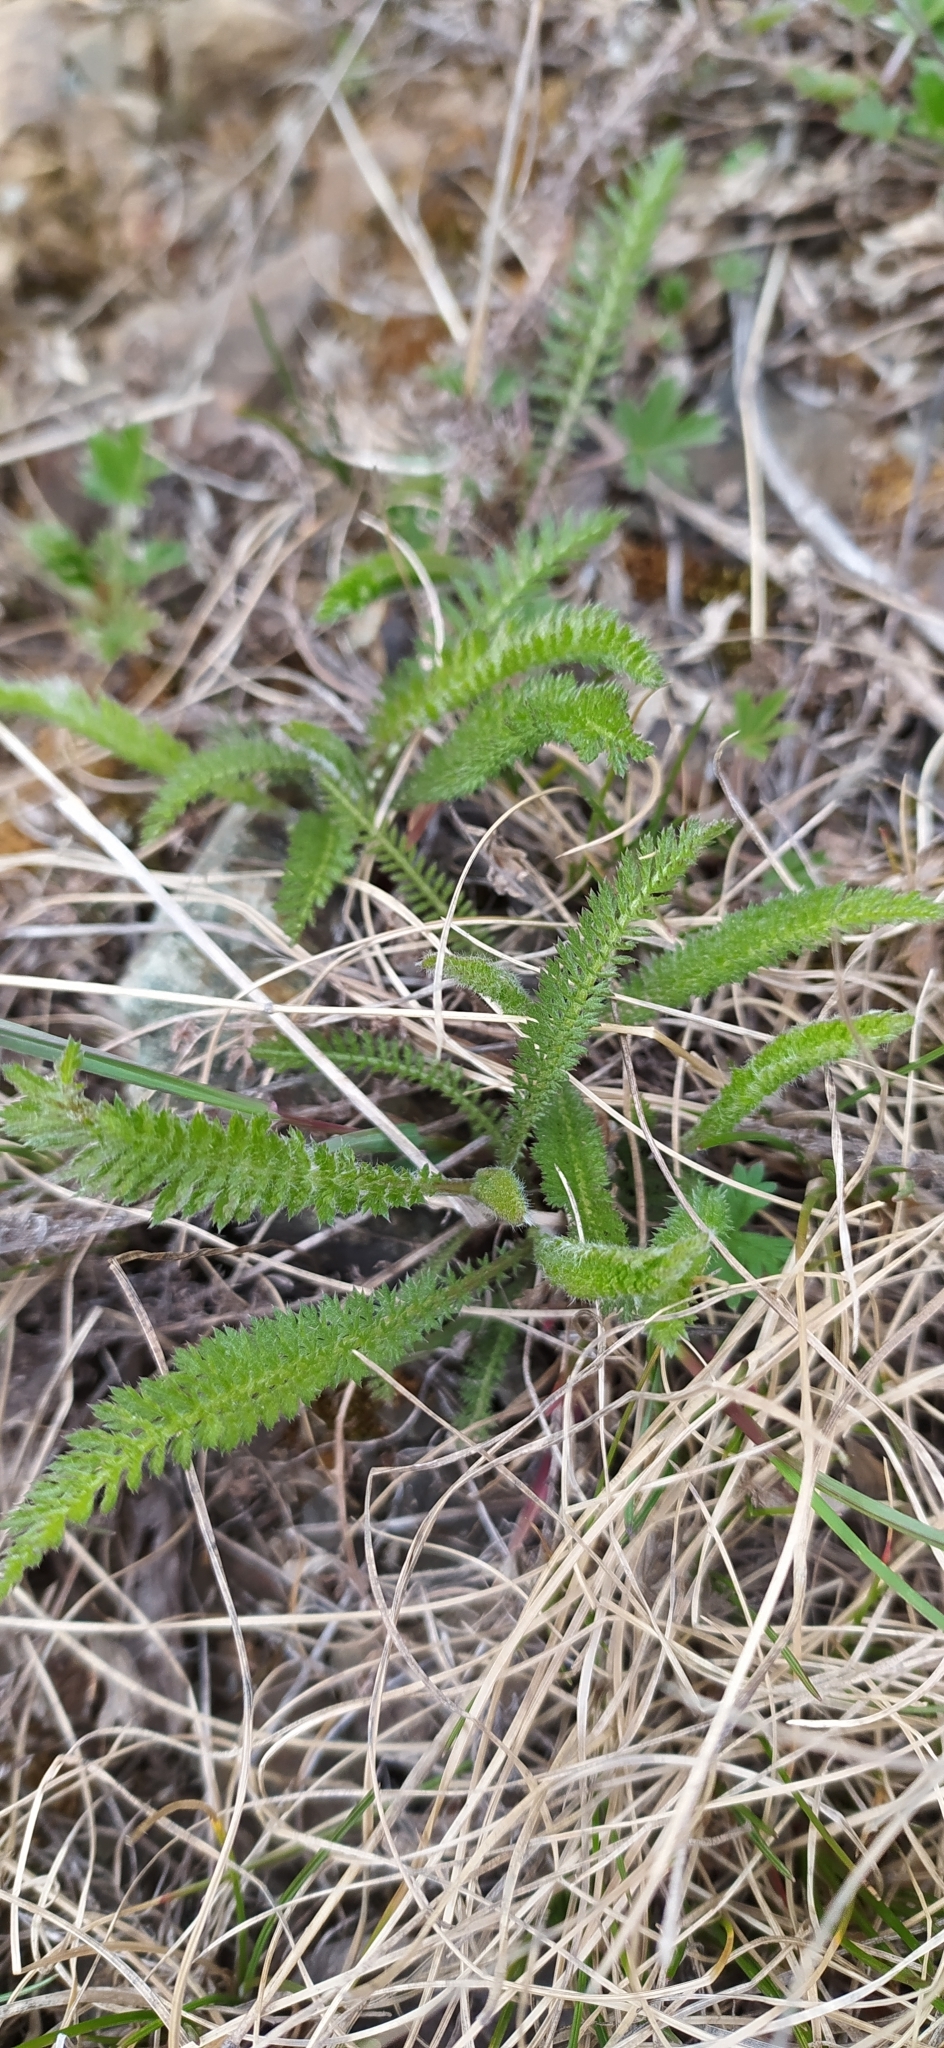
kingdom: Plantae
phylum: Tracheophyta
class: Magnoliopsida
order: Asterales
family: Asteraceae
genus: Achillea
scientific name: Achillea millefolium
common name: Yarrow
